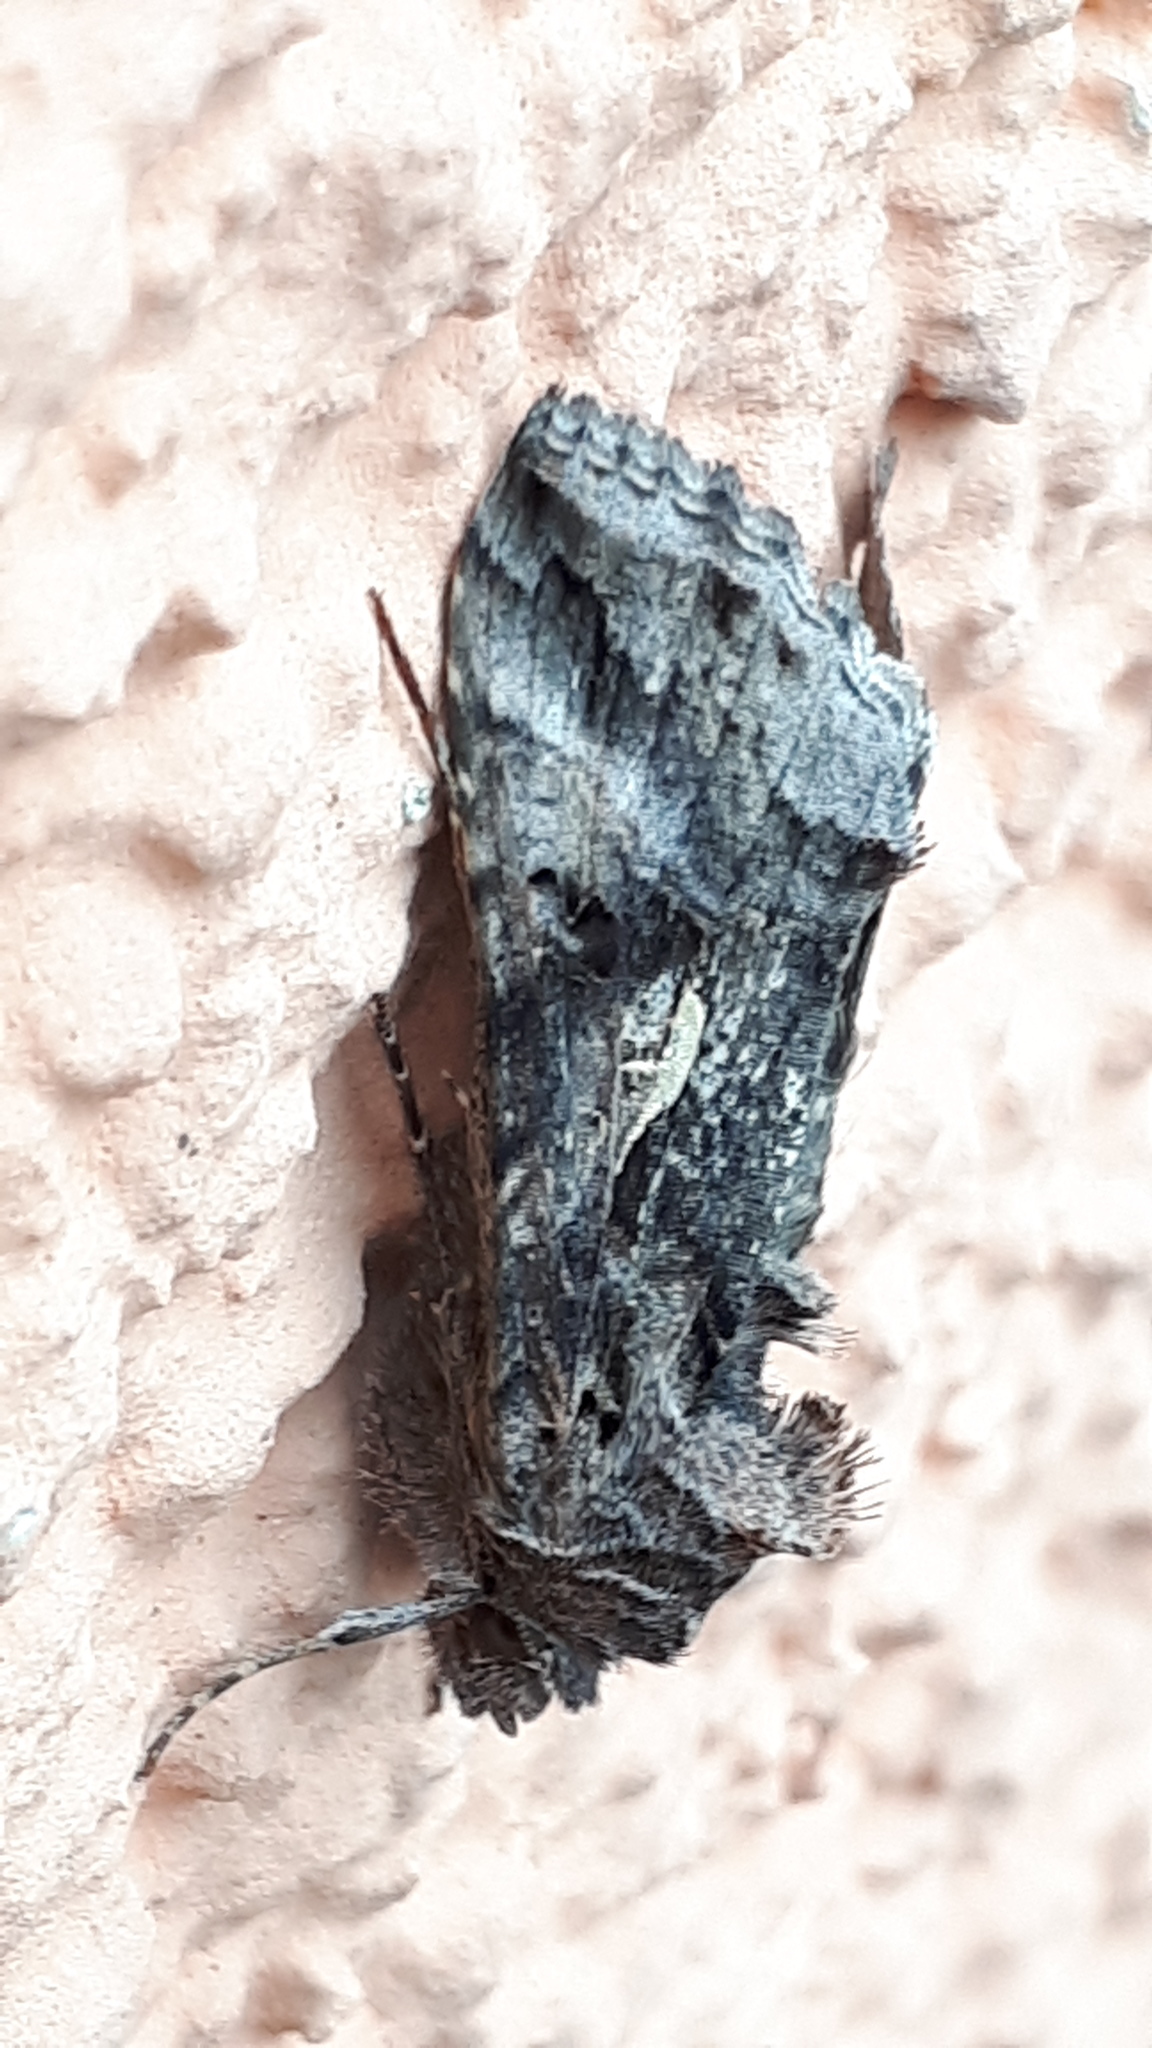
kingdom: Animalia
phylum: Arthropoda
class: Insecta
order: Lepidoptera
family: Noctuidae
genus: Autographa
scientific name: Autographa gamma
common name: Silver y
